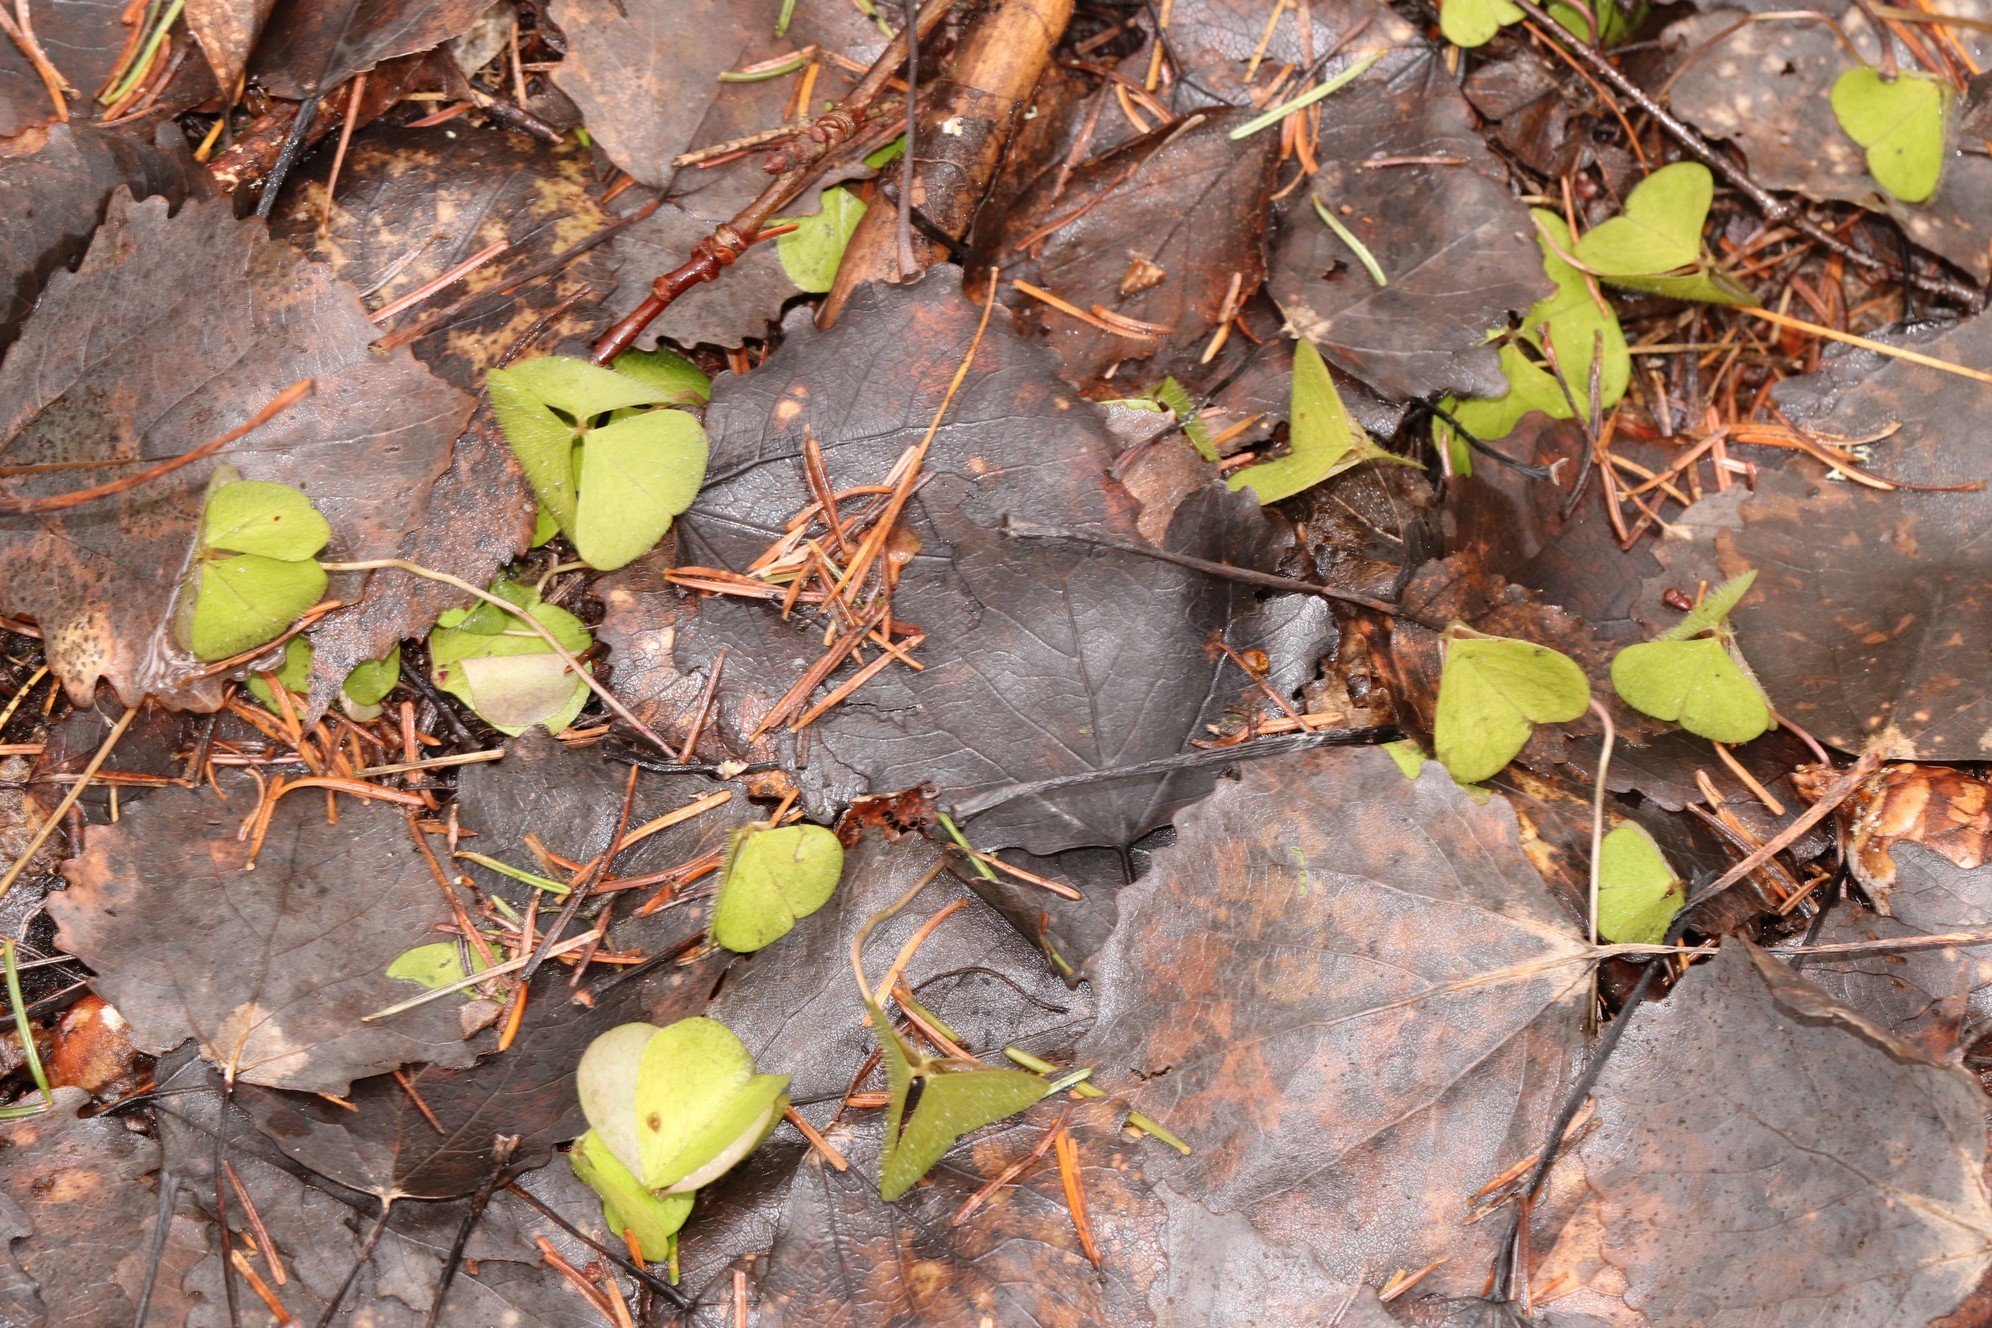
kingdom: Plantae
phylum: Tracheophyta
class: Magnoliopsida
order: Oxalidales
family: Oxalidaceae
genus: Oxalis
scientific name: Oxalis acetosella
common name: Wood-sorrel
